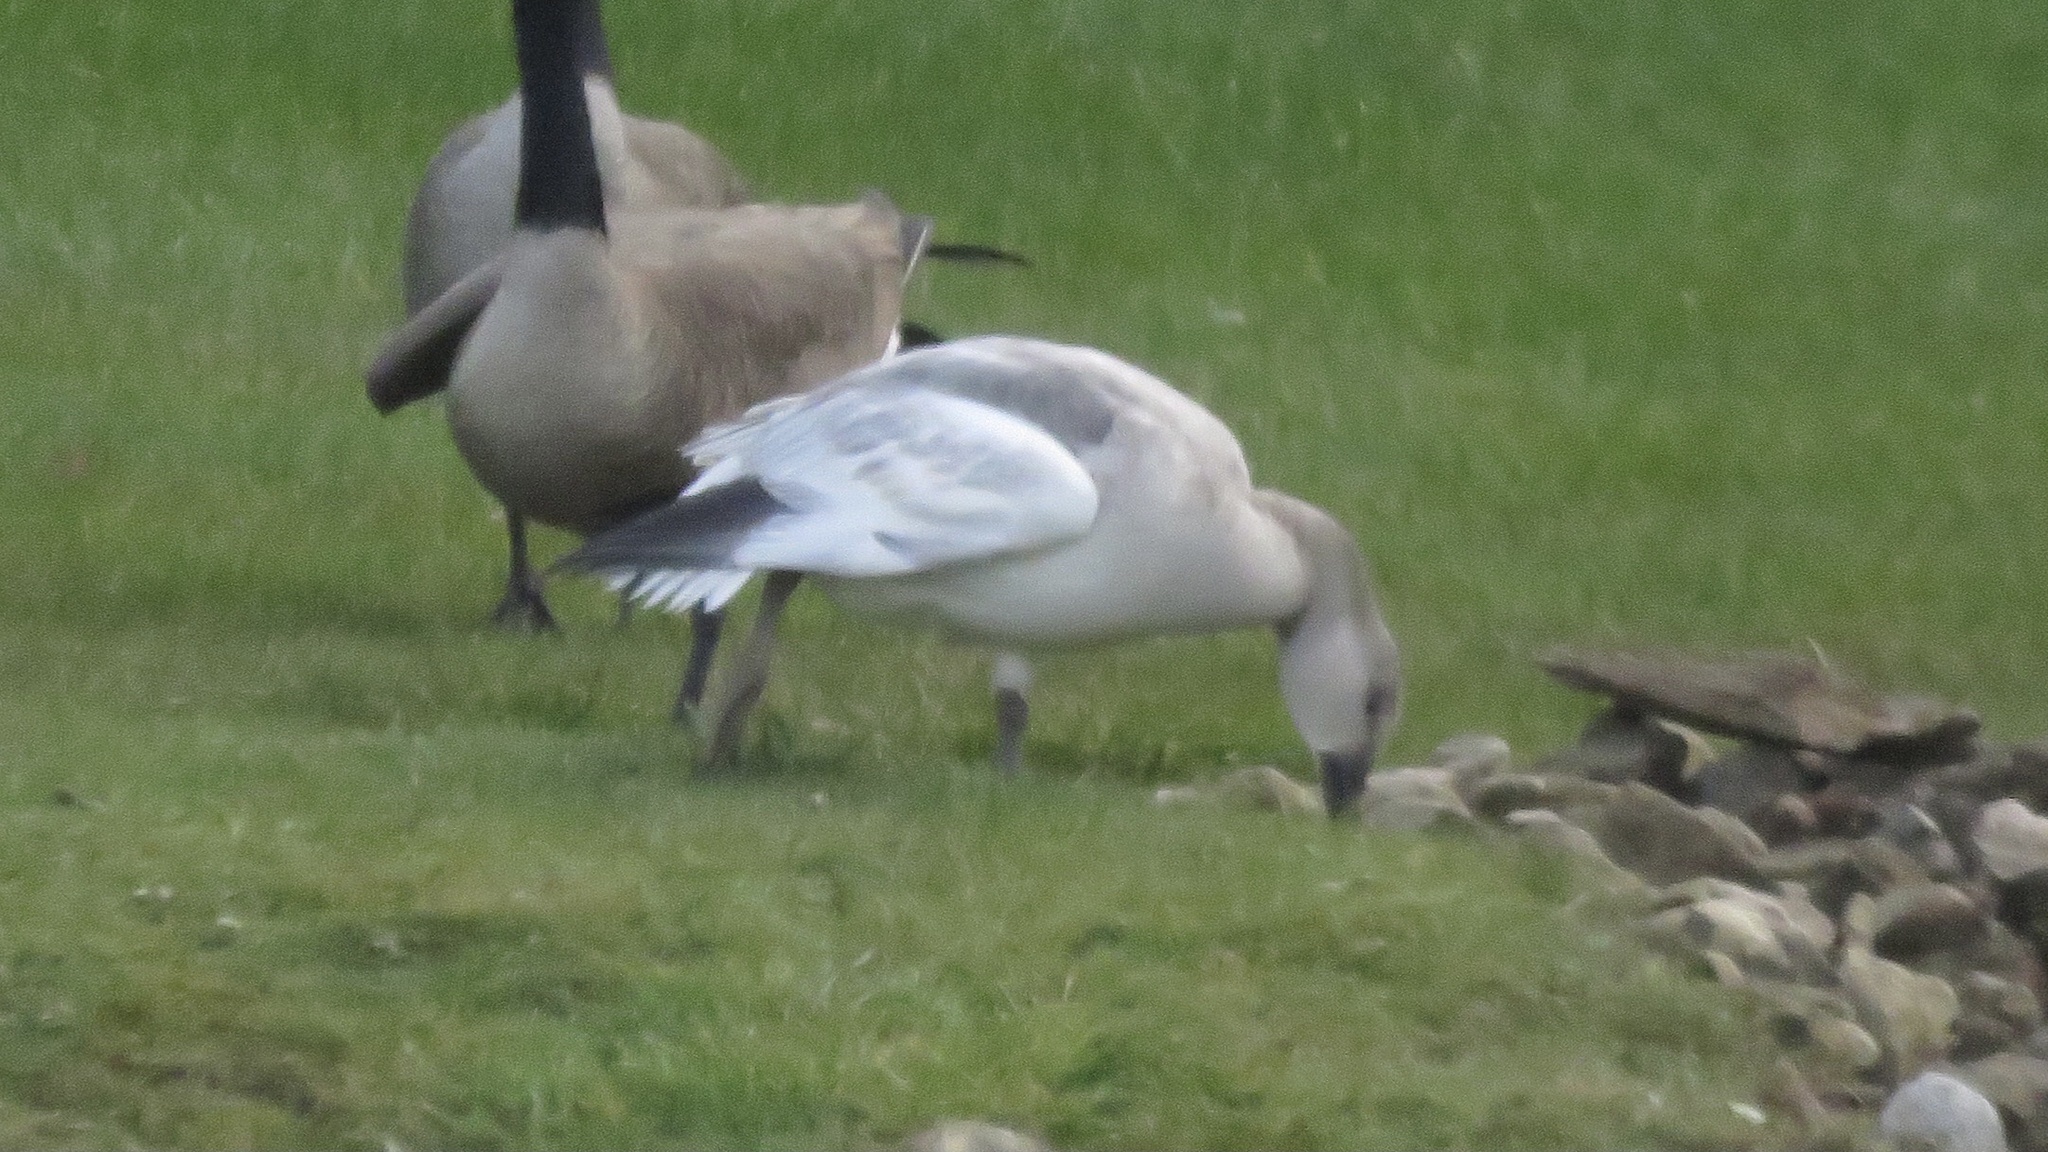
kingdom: Animalia
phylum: Chordata
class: Aves
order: Anseriformes
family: Anatidae
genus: Anser
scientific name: Anser caerulescens
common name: Snow goose
